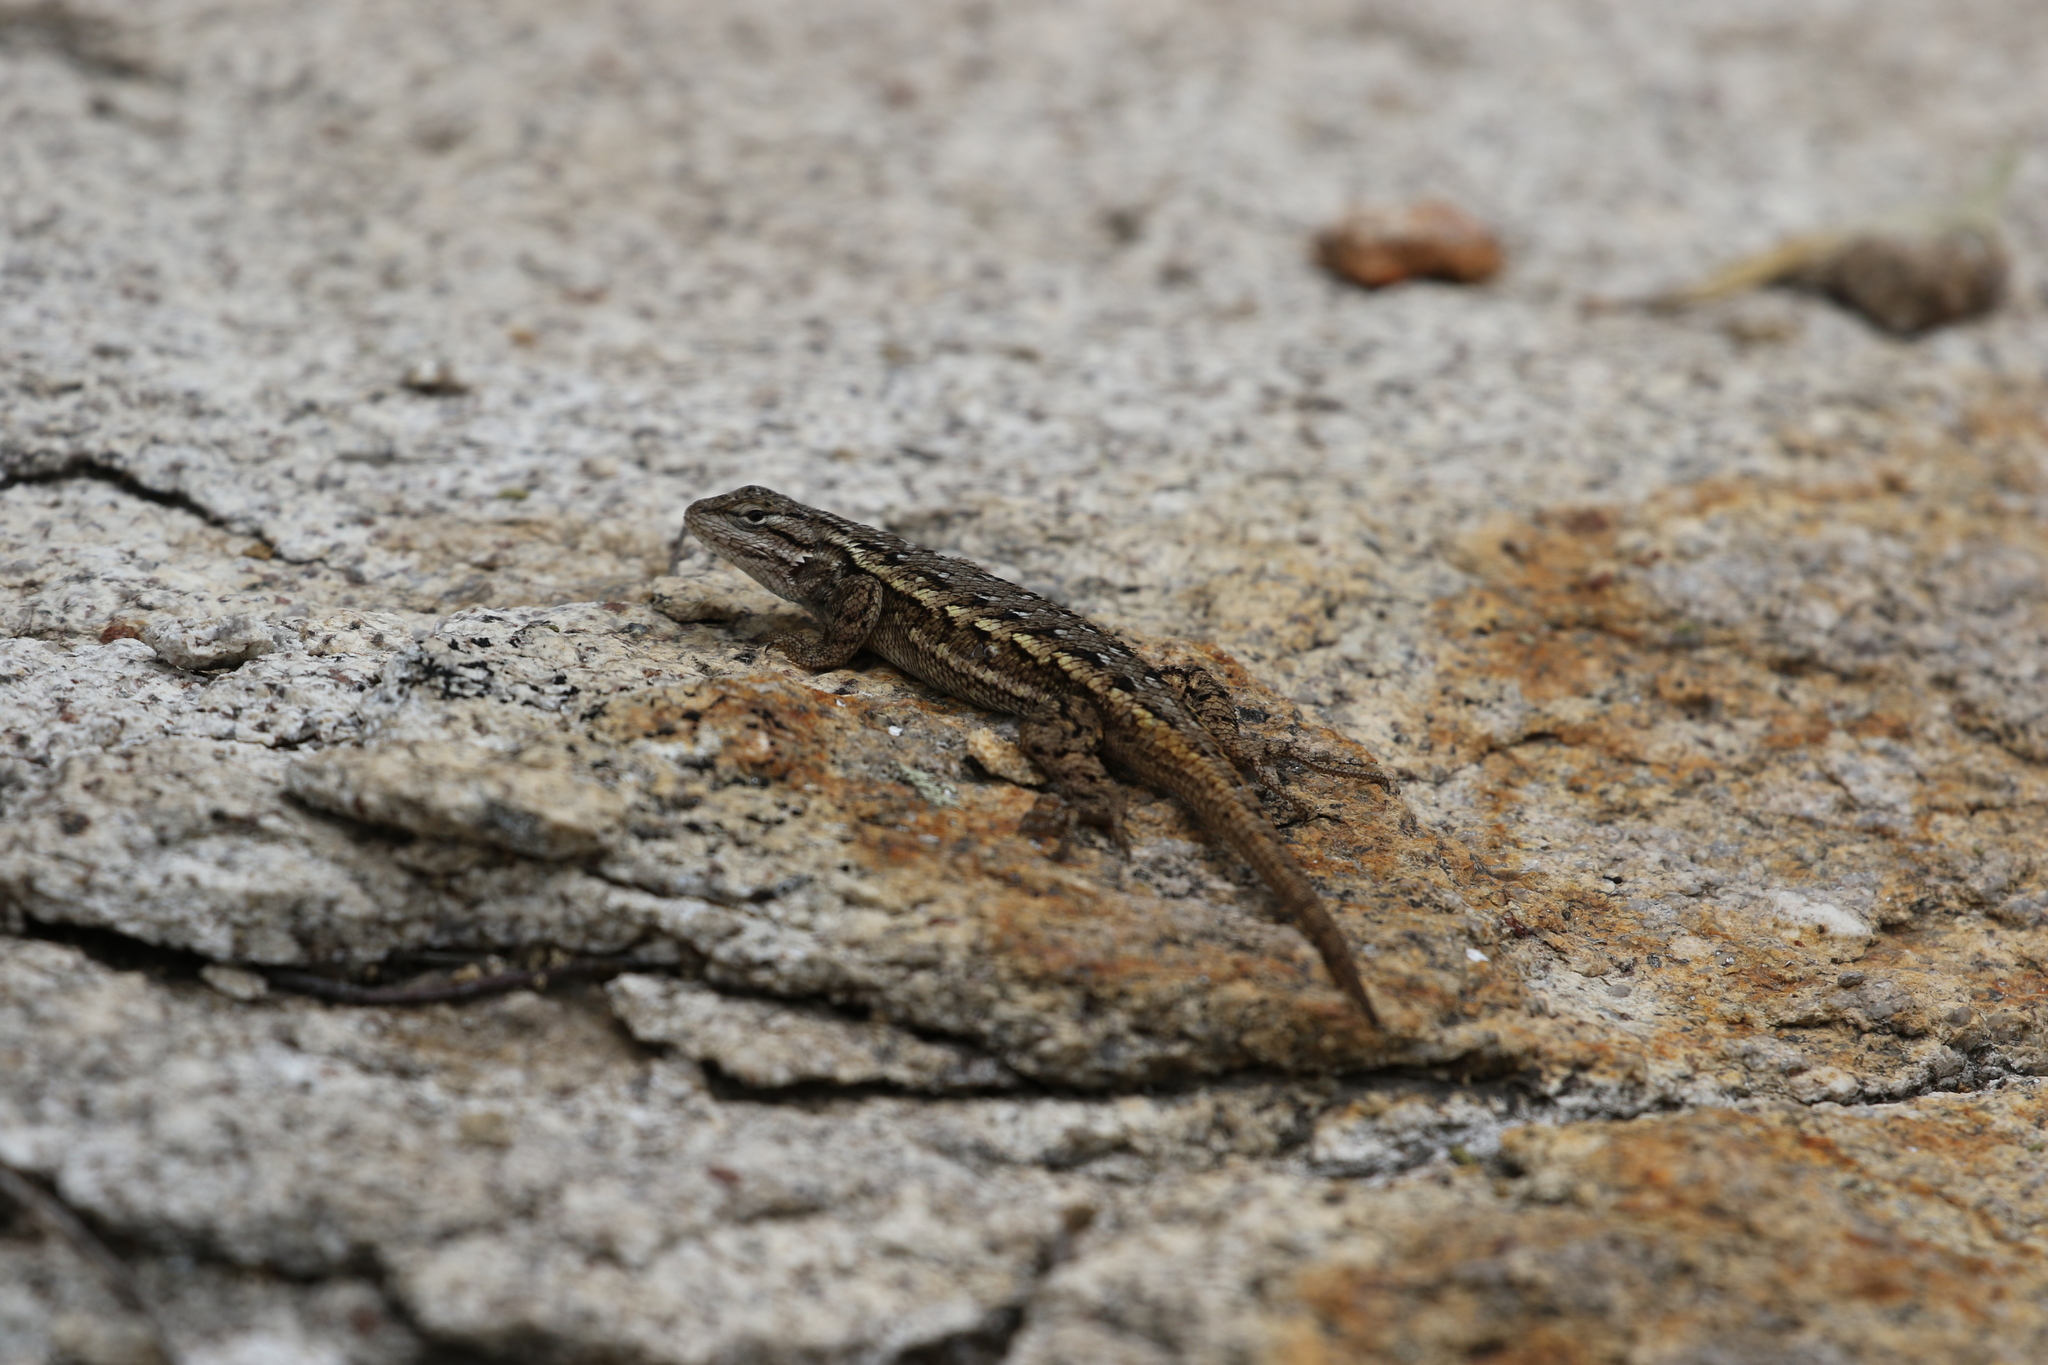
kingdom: Animalia
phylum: Chordata
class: Squamata
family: Phrynosomatidae
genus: Sceloporus
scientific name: Sceloporus cowlesi
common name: White sands prairie lizard
